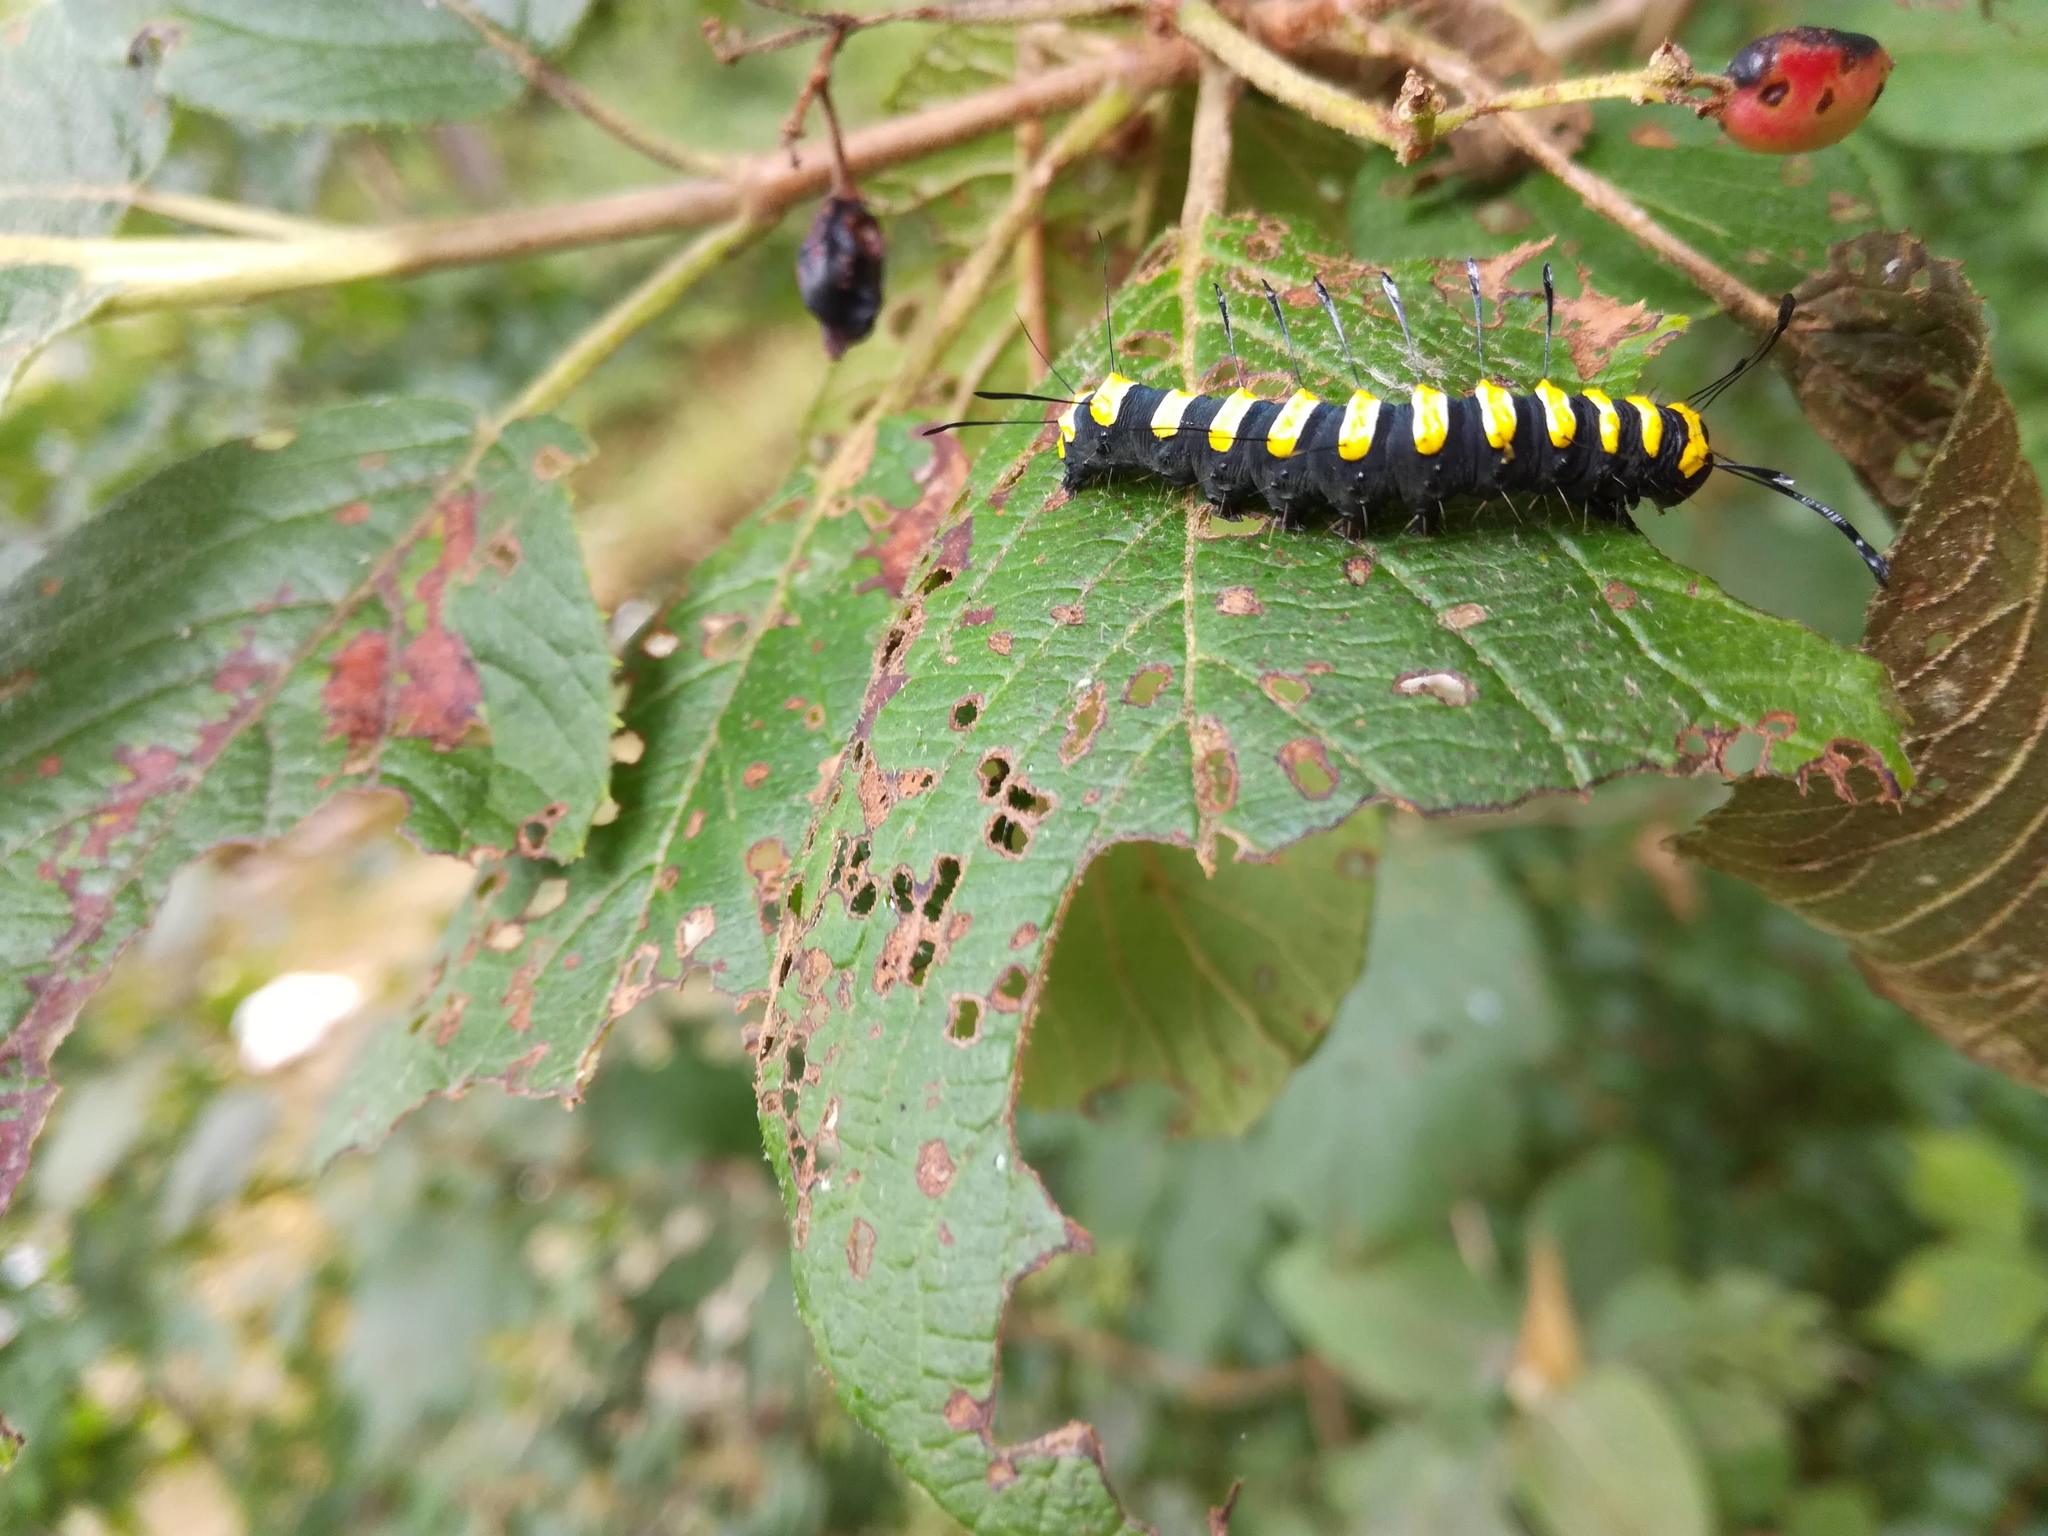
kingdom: Animalia
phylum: Arthropoda
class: Insecta
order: Lepidoptera
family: Noctuidae
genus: Acronicta
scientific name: Acronicta alni
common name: Alder moth
